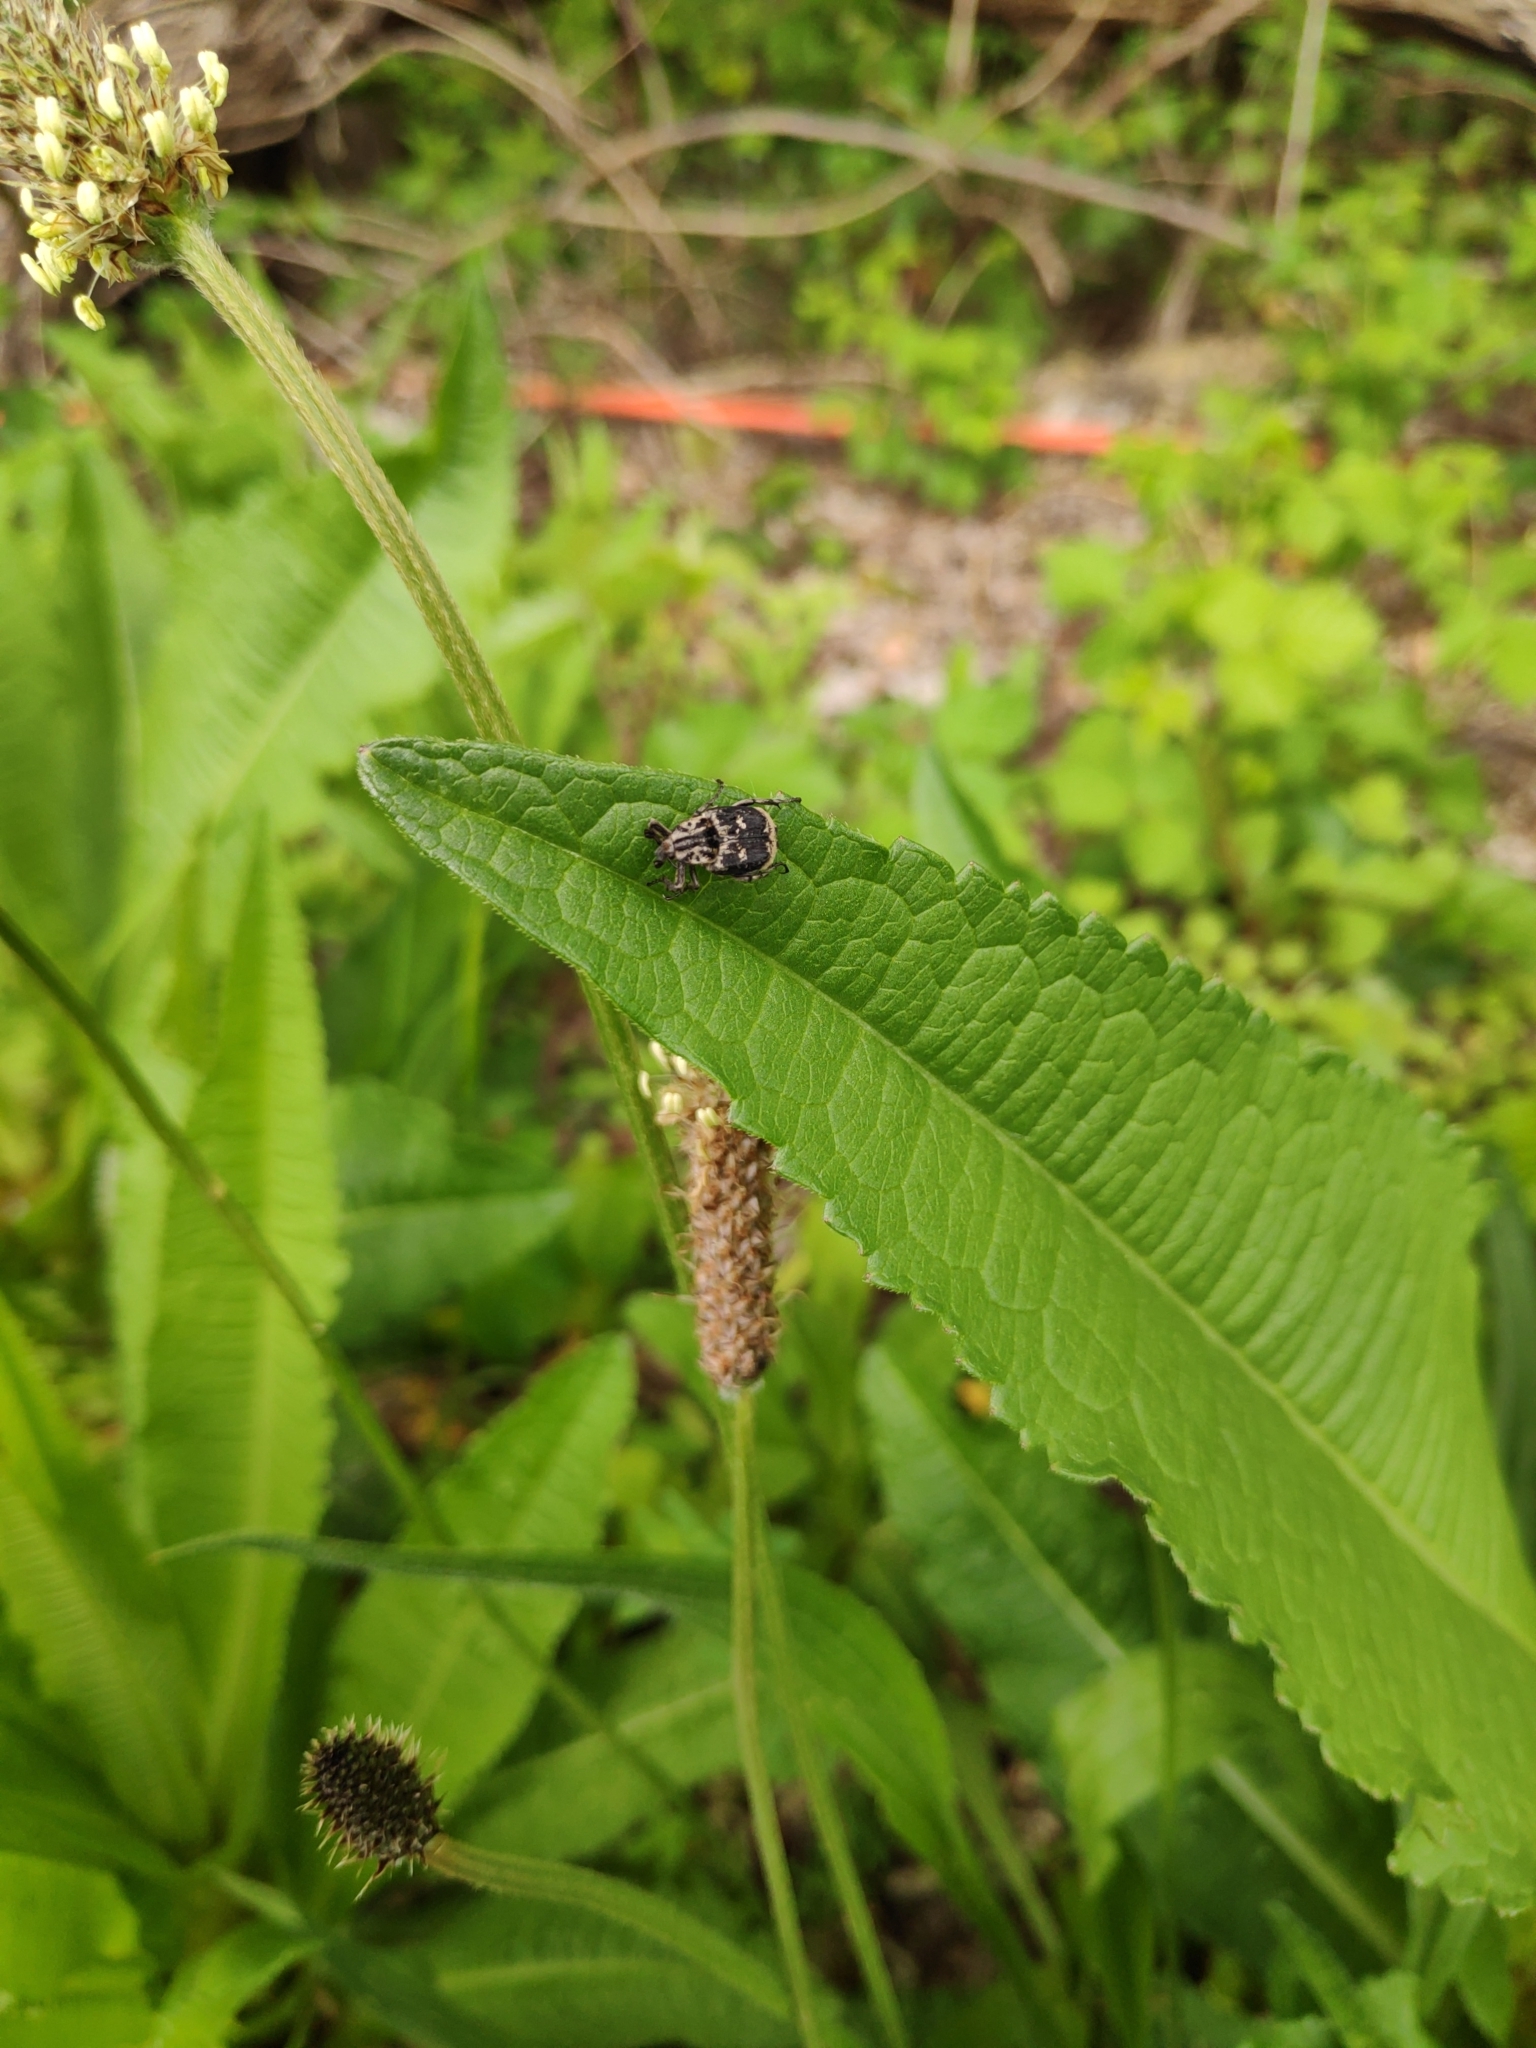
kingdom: Animalia
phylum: Arthropoda
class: Insecta
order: Coleoptera
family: Scarabaeidae
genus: Valgus
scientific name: Valgus hemipterus
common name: Bug flower chafer
